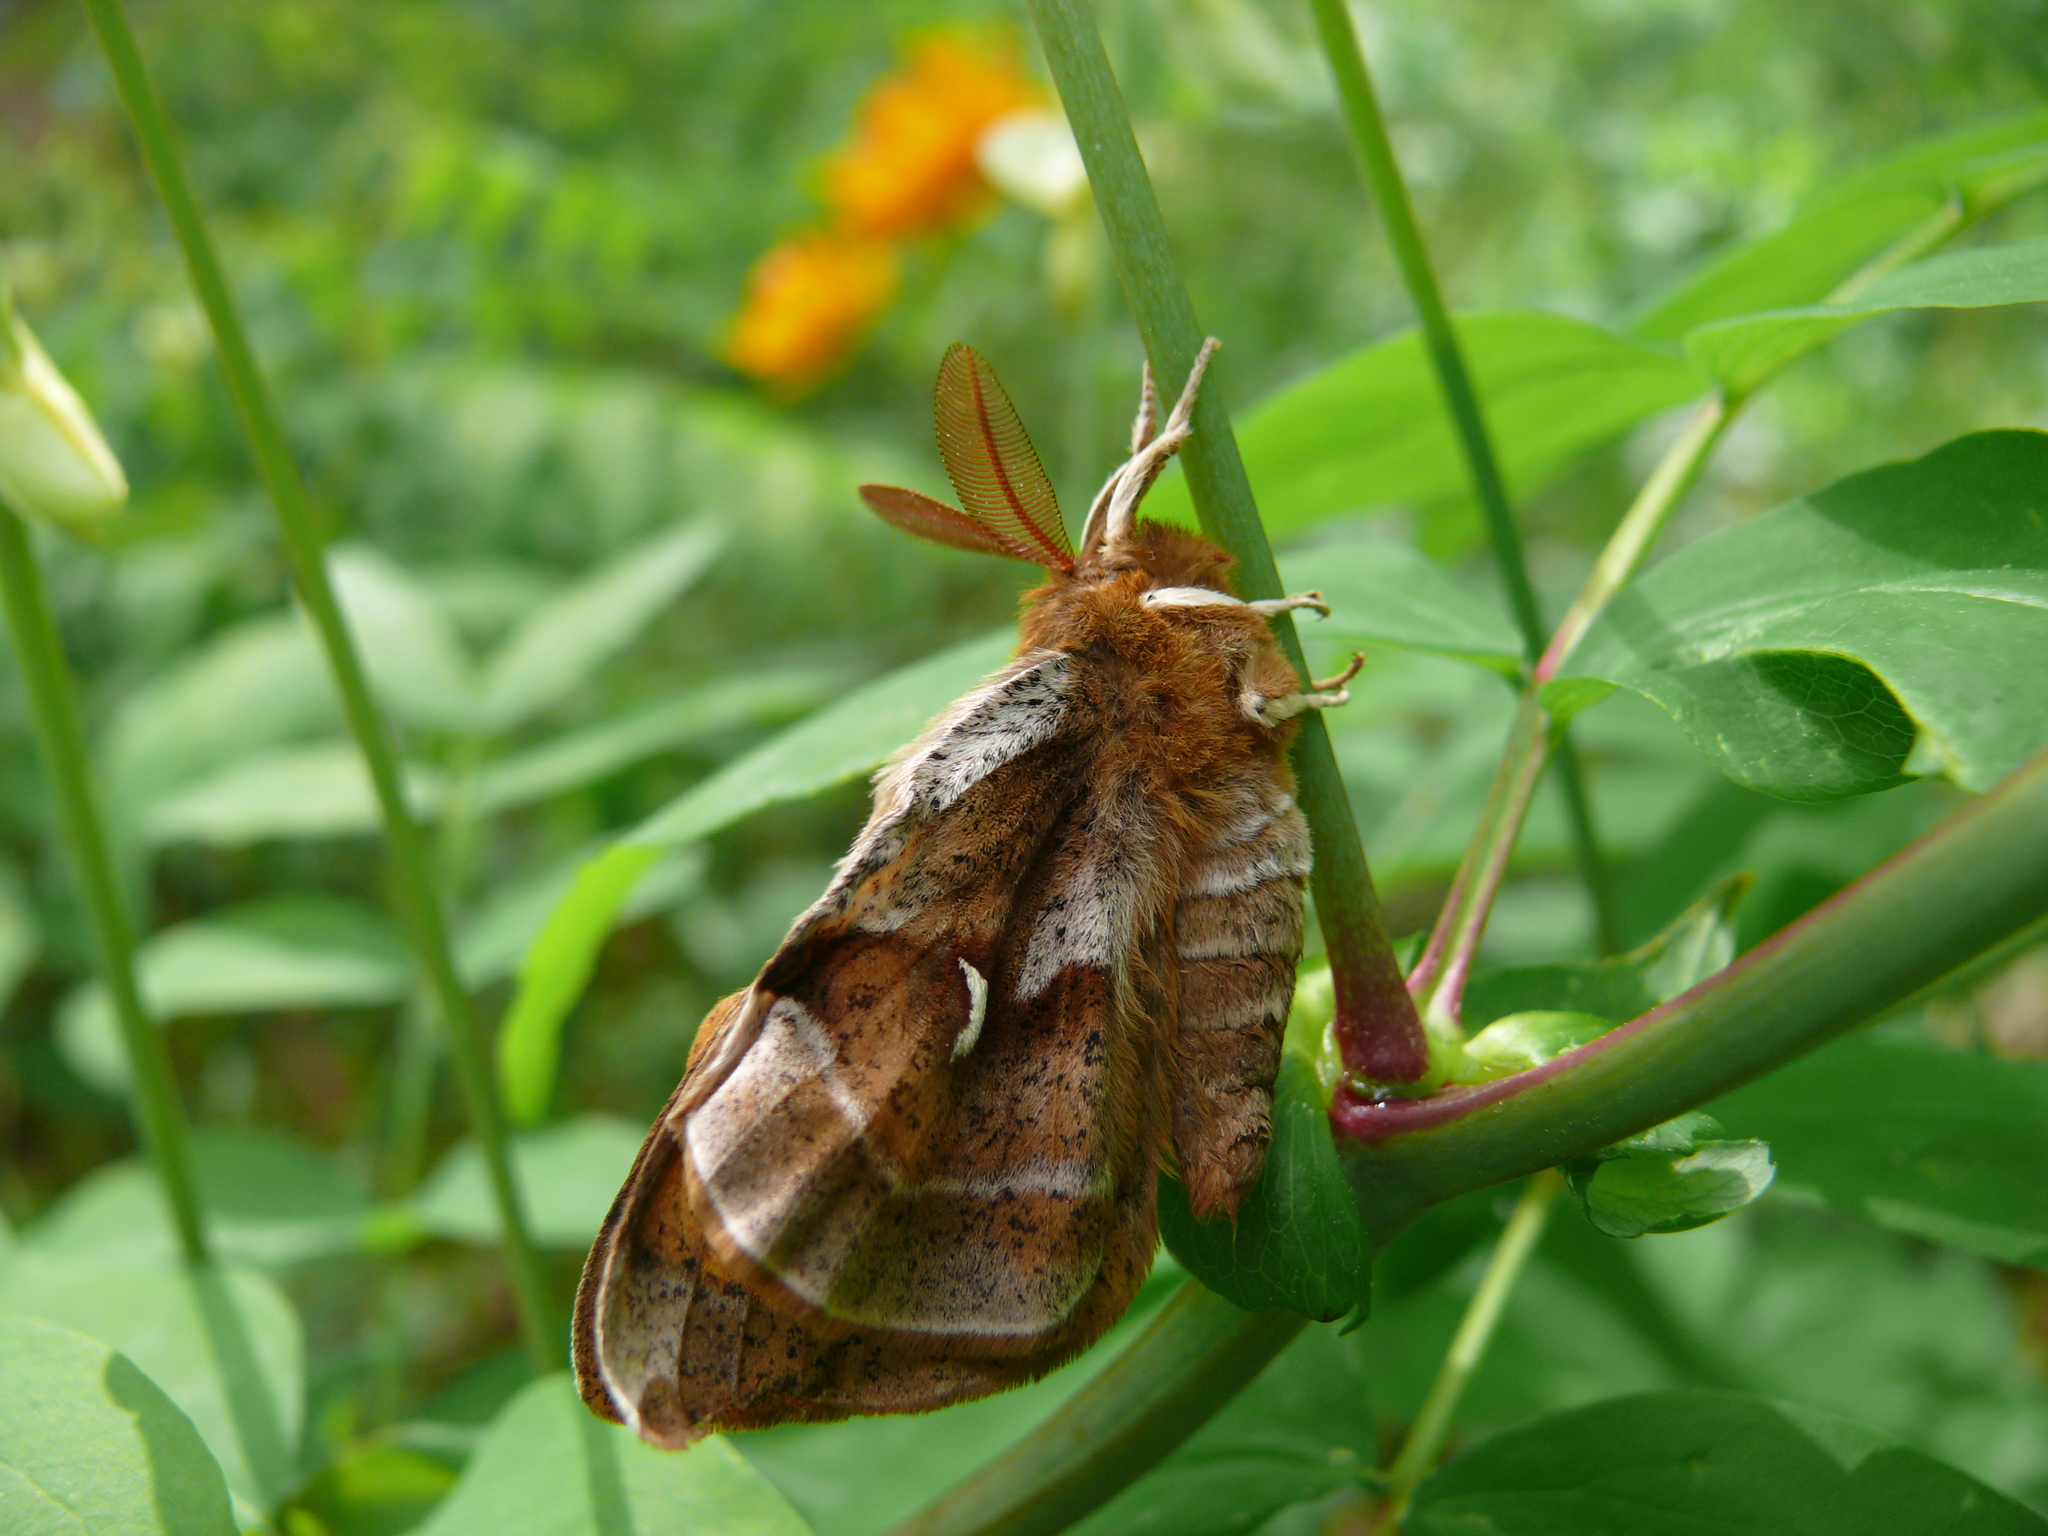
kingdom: Animalia
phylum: Arthropoda
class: Insecta
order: Lepidoptera
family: Saturniidae
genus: Aglia
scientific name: Aglia tau
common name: Tau emperor
